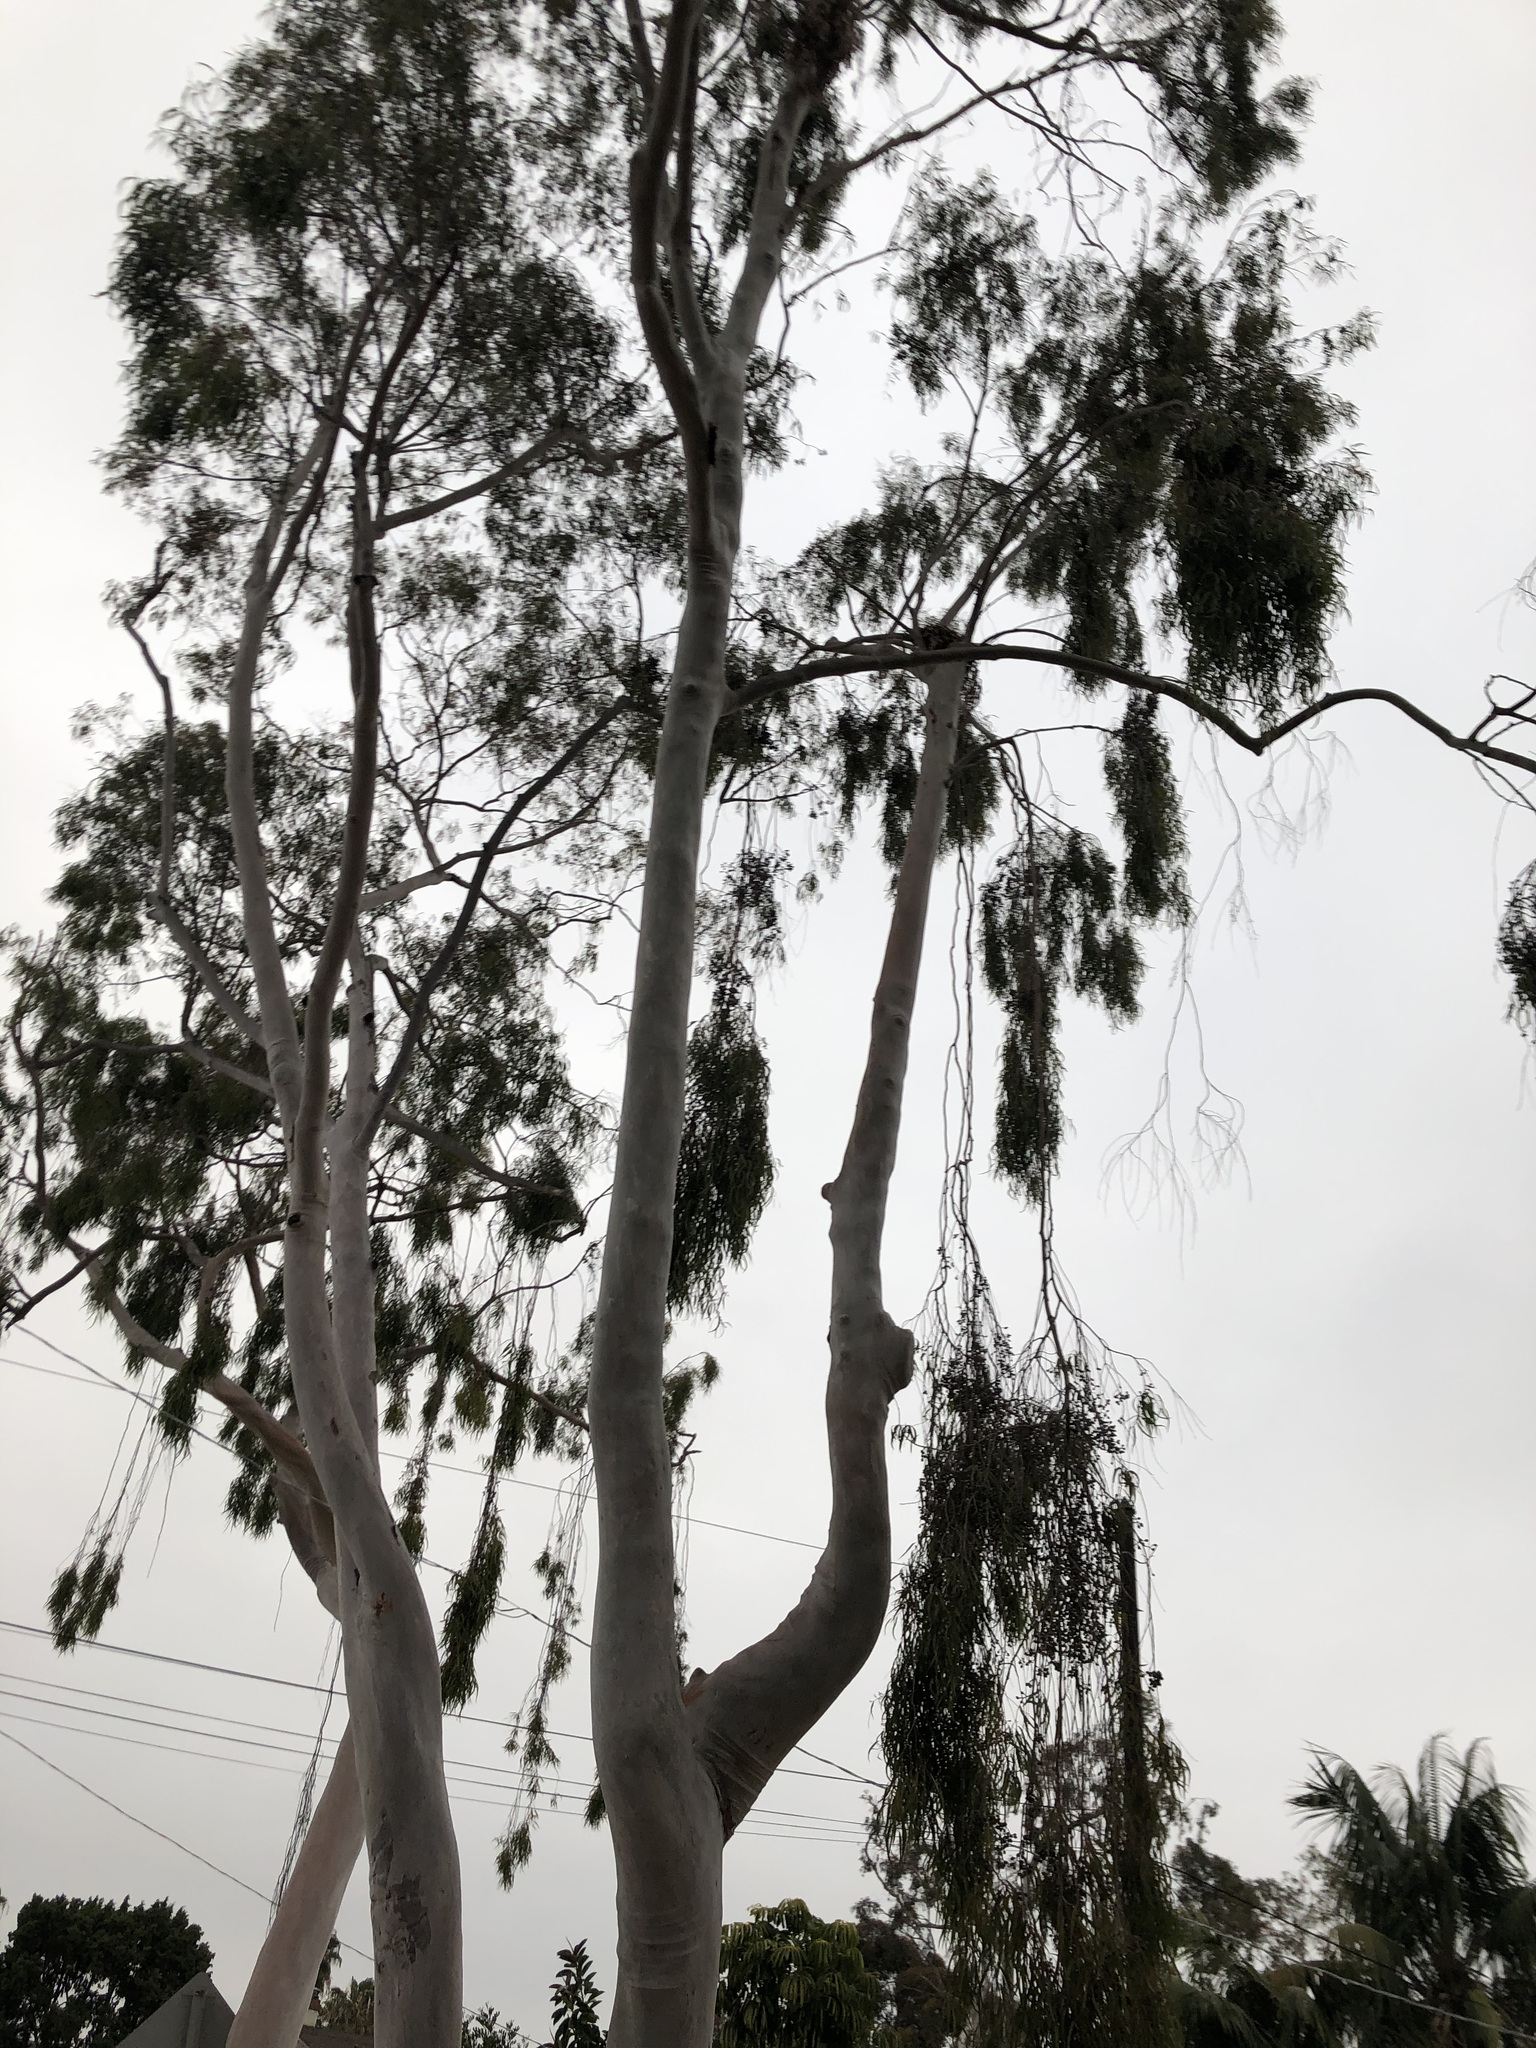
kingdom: Plantae
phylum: Tracheophyta
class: Magnoliopsida
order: Myrtales
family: Myrtaceae
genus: Corymbia
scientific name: Corymbia citriodora
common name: Lemonscented gum
